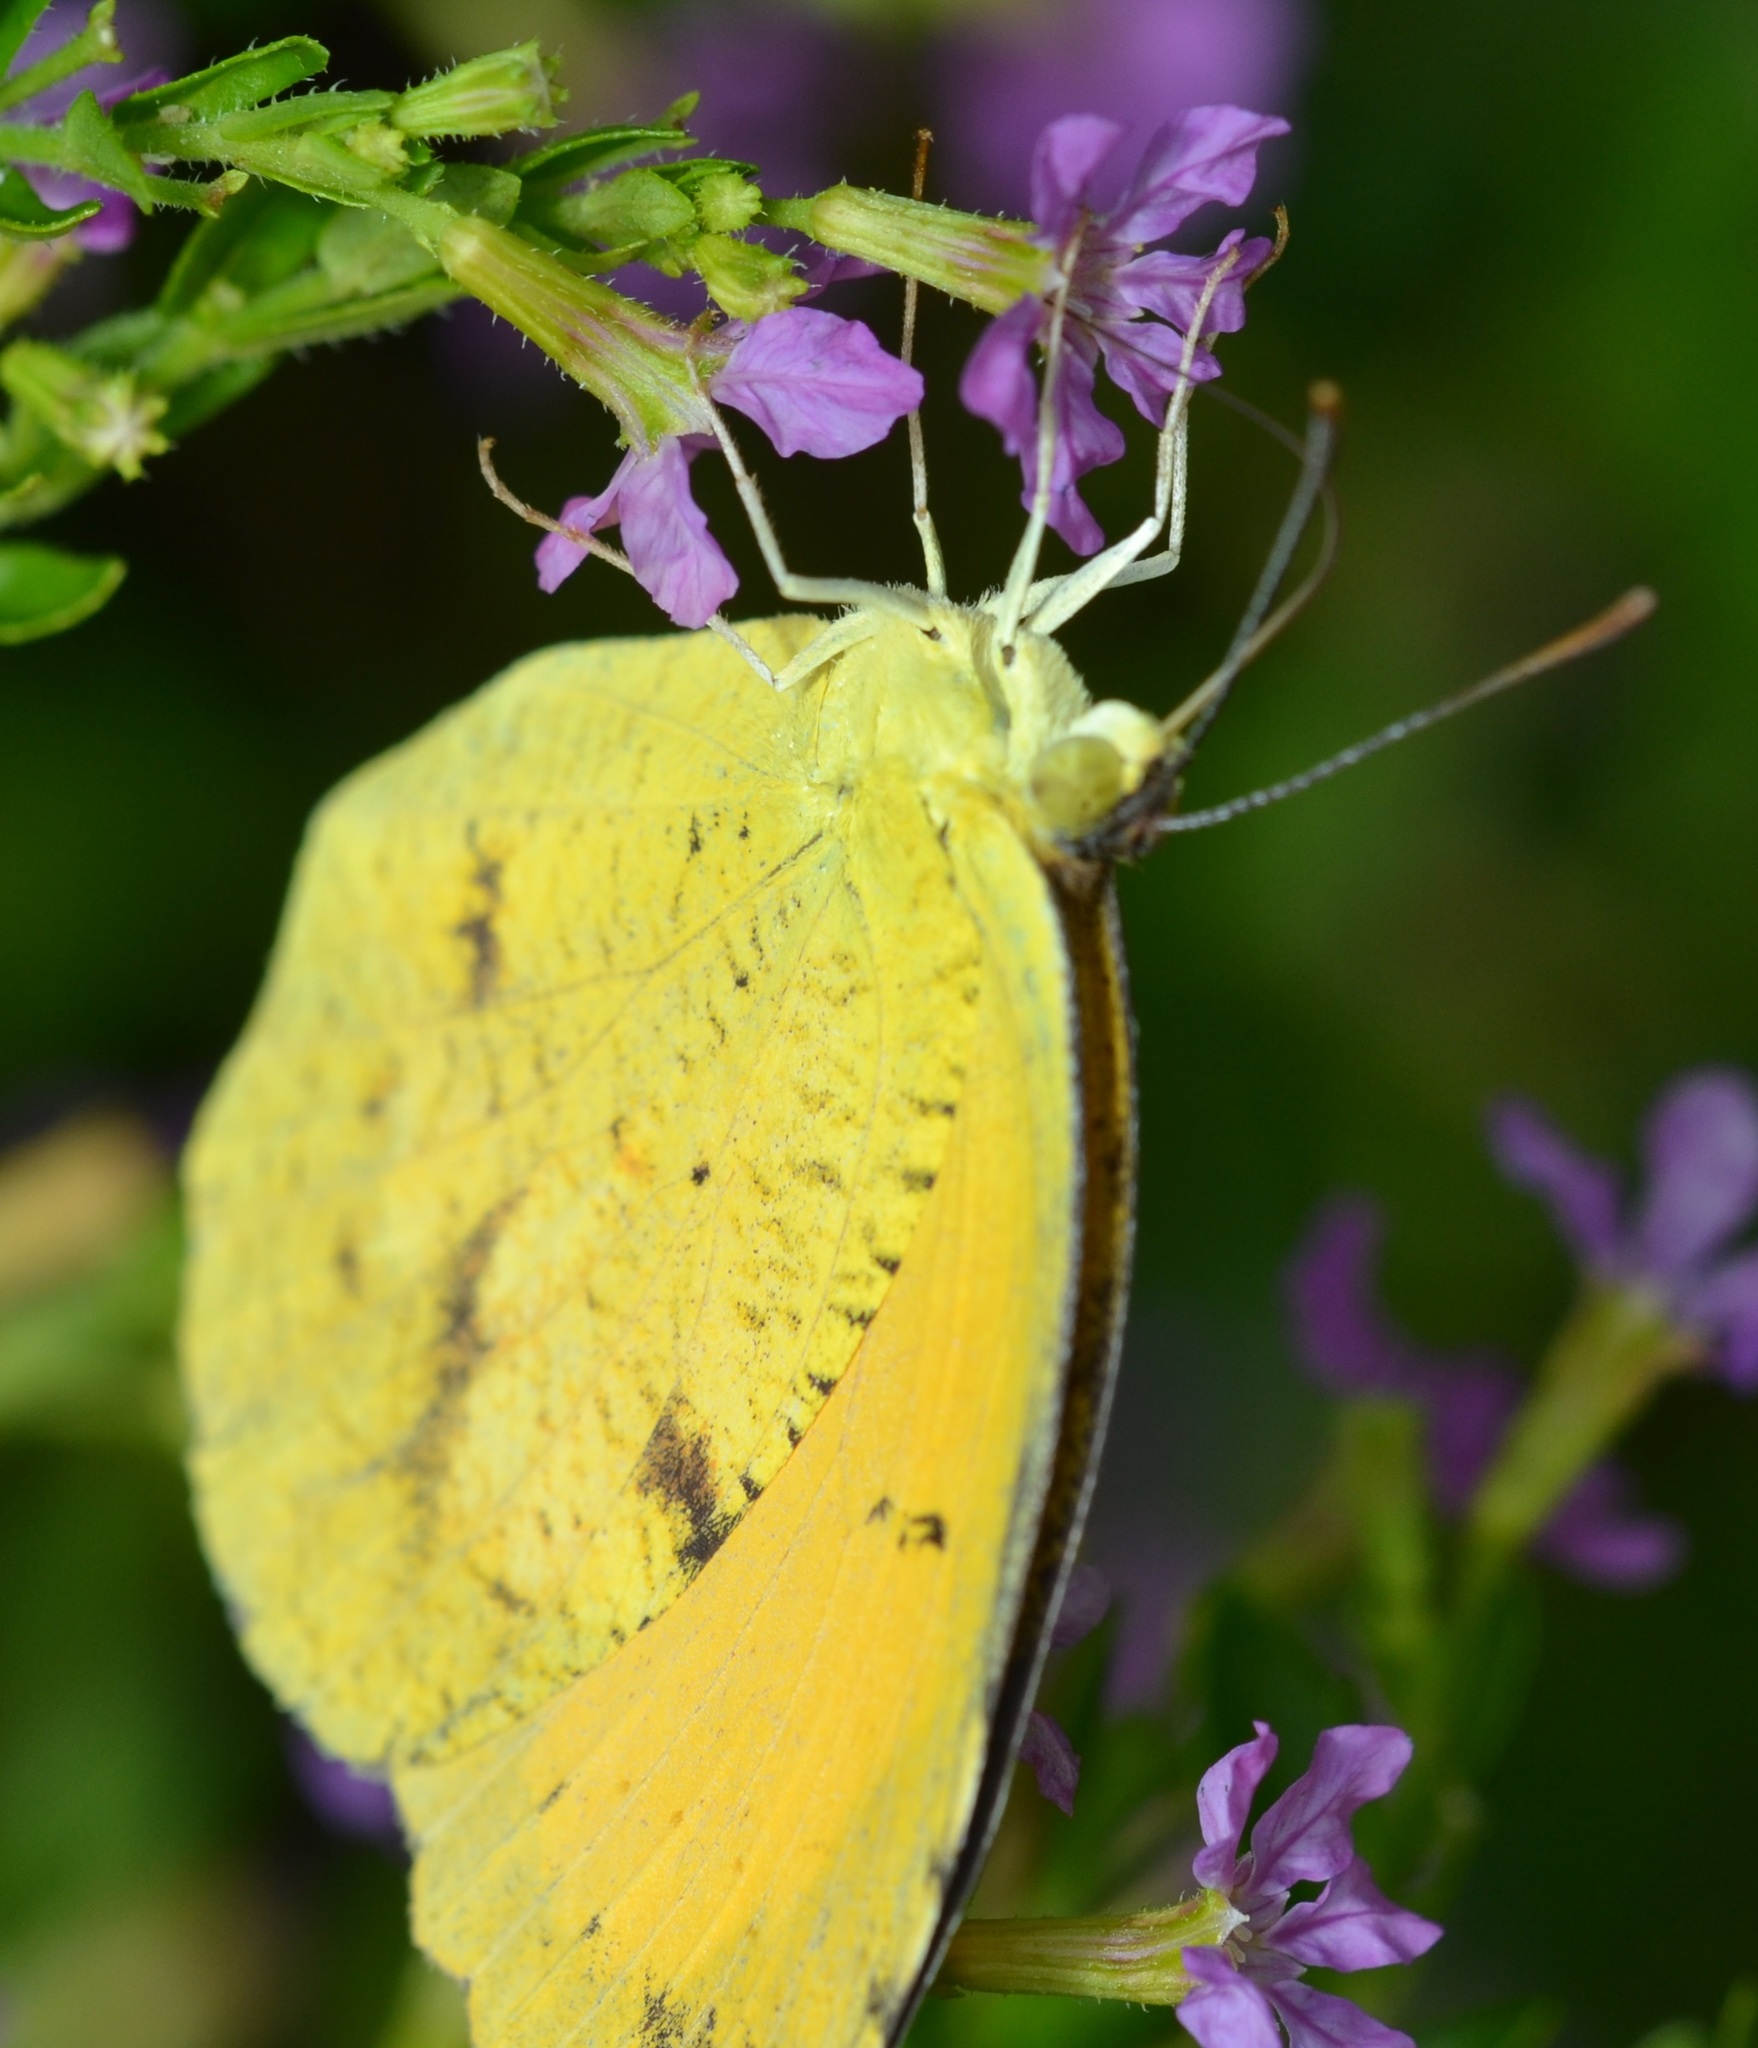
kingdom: Animalia
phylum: Arthropoda
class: Insecta
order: Lepidoptera
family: Pieridae
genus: Abaeis
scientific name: Abaeis nicippe
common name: Sleepy orange
